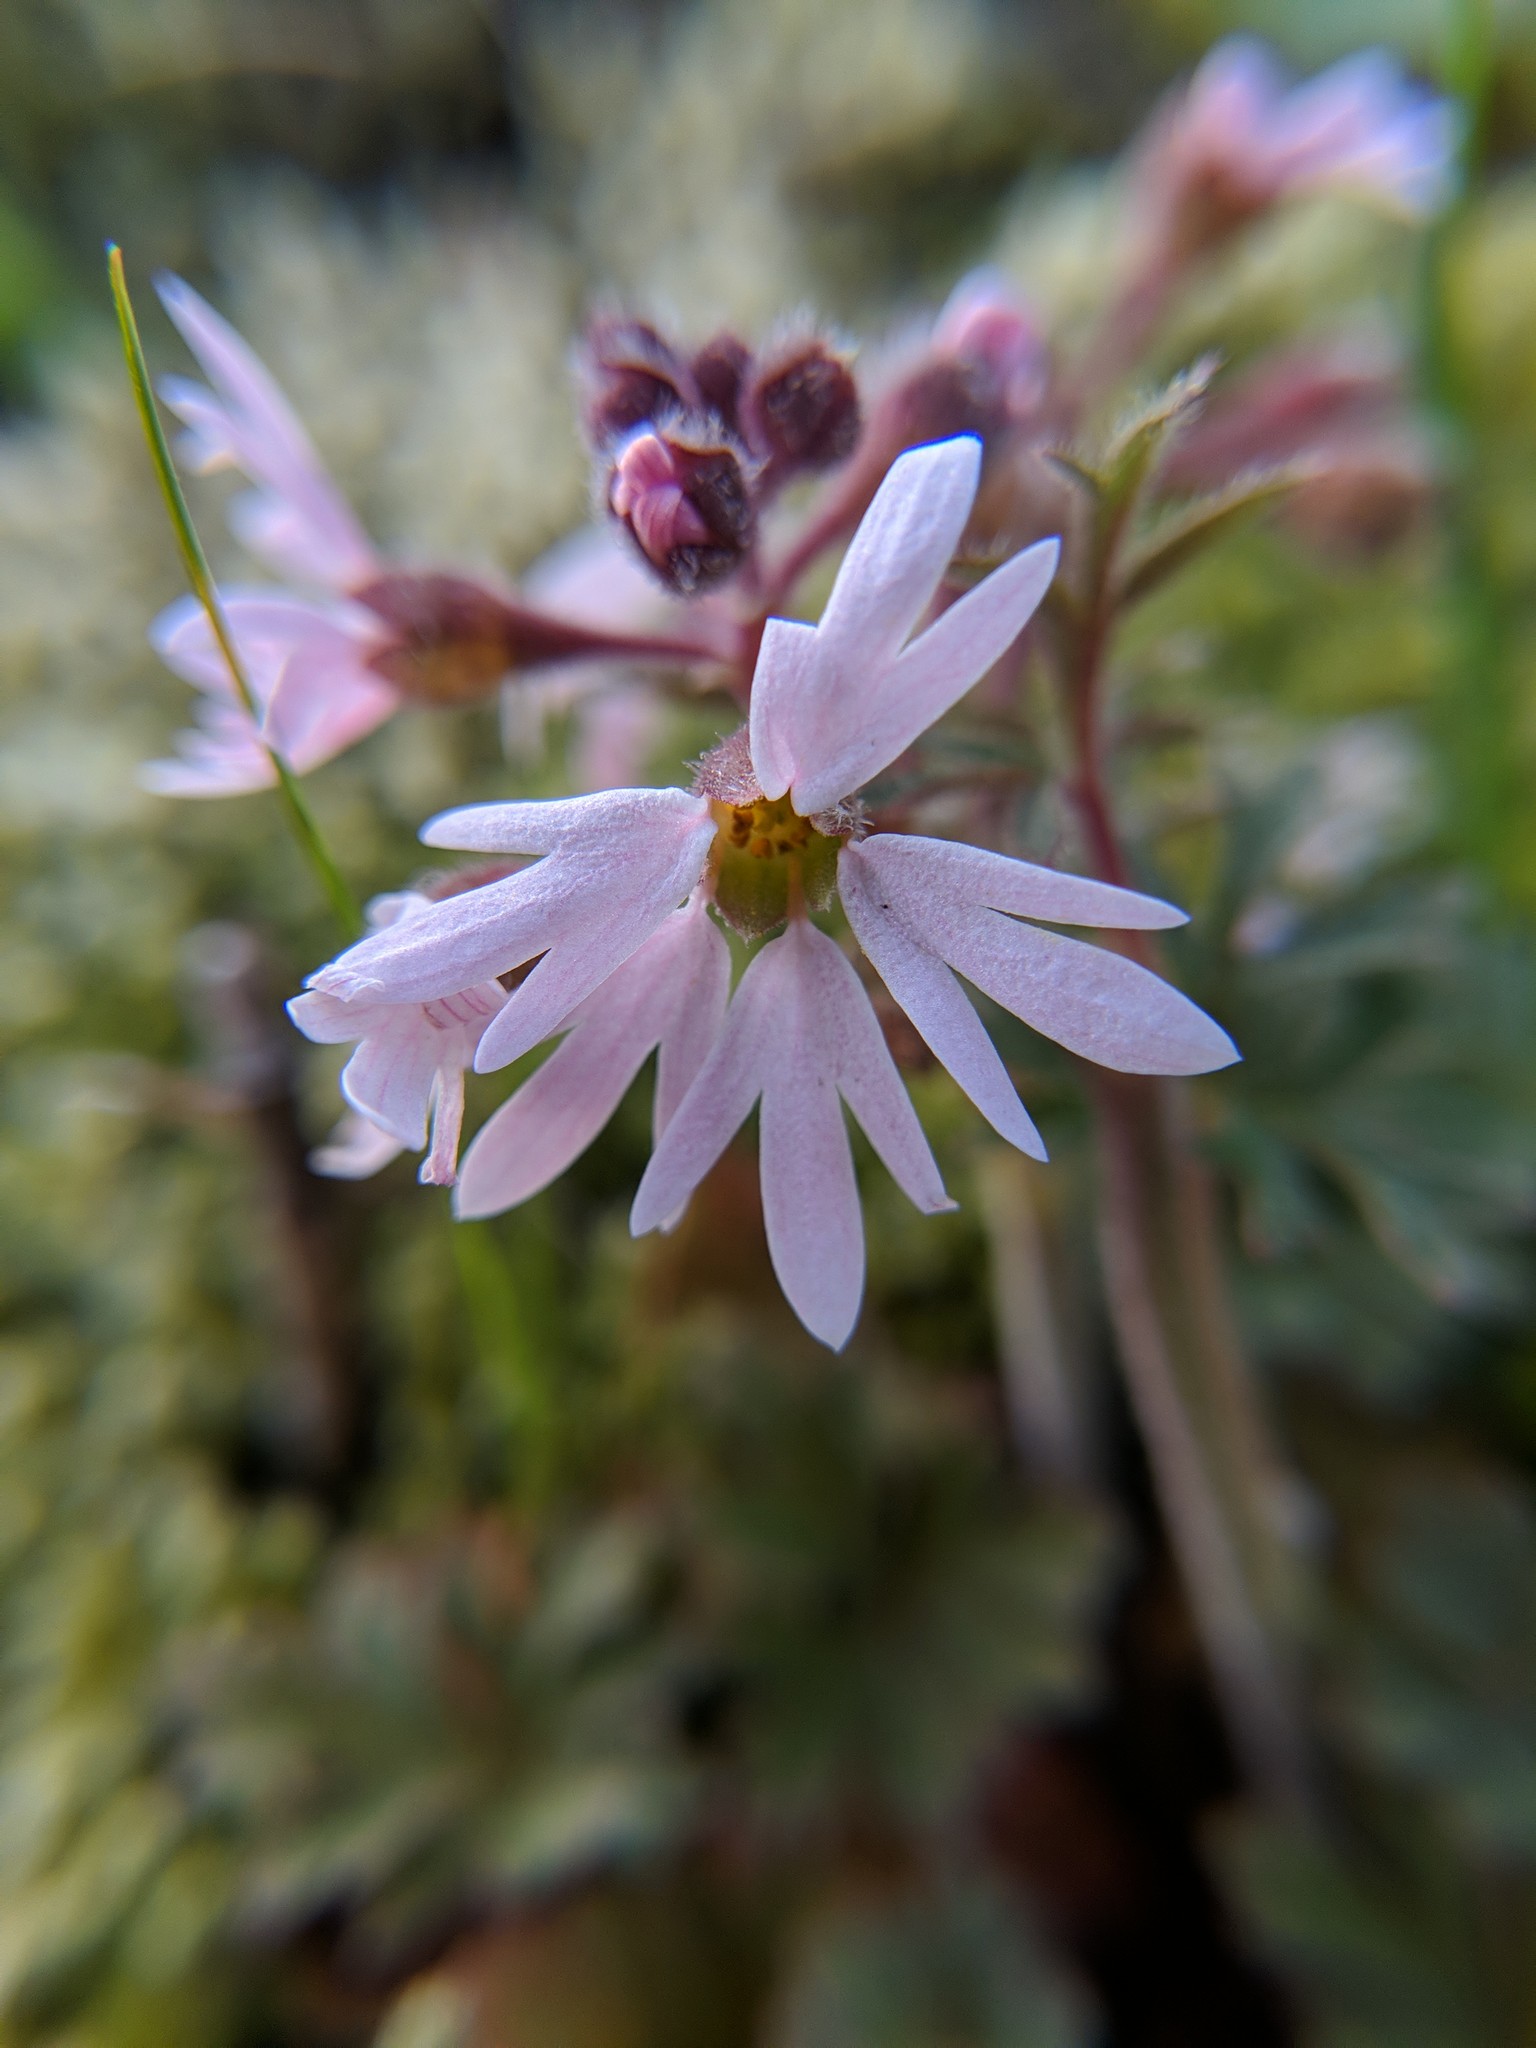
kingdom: Plantae
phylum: Tracheophyta
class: Magnoliopsida
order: Saxifragales
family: Saxifragaceae
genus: Lithophragma
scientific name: Lithophragma parviflorum
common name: Small-flowered fringe-cup
